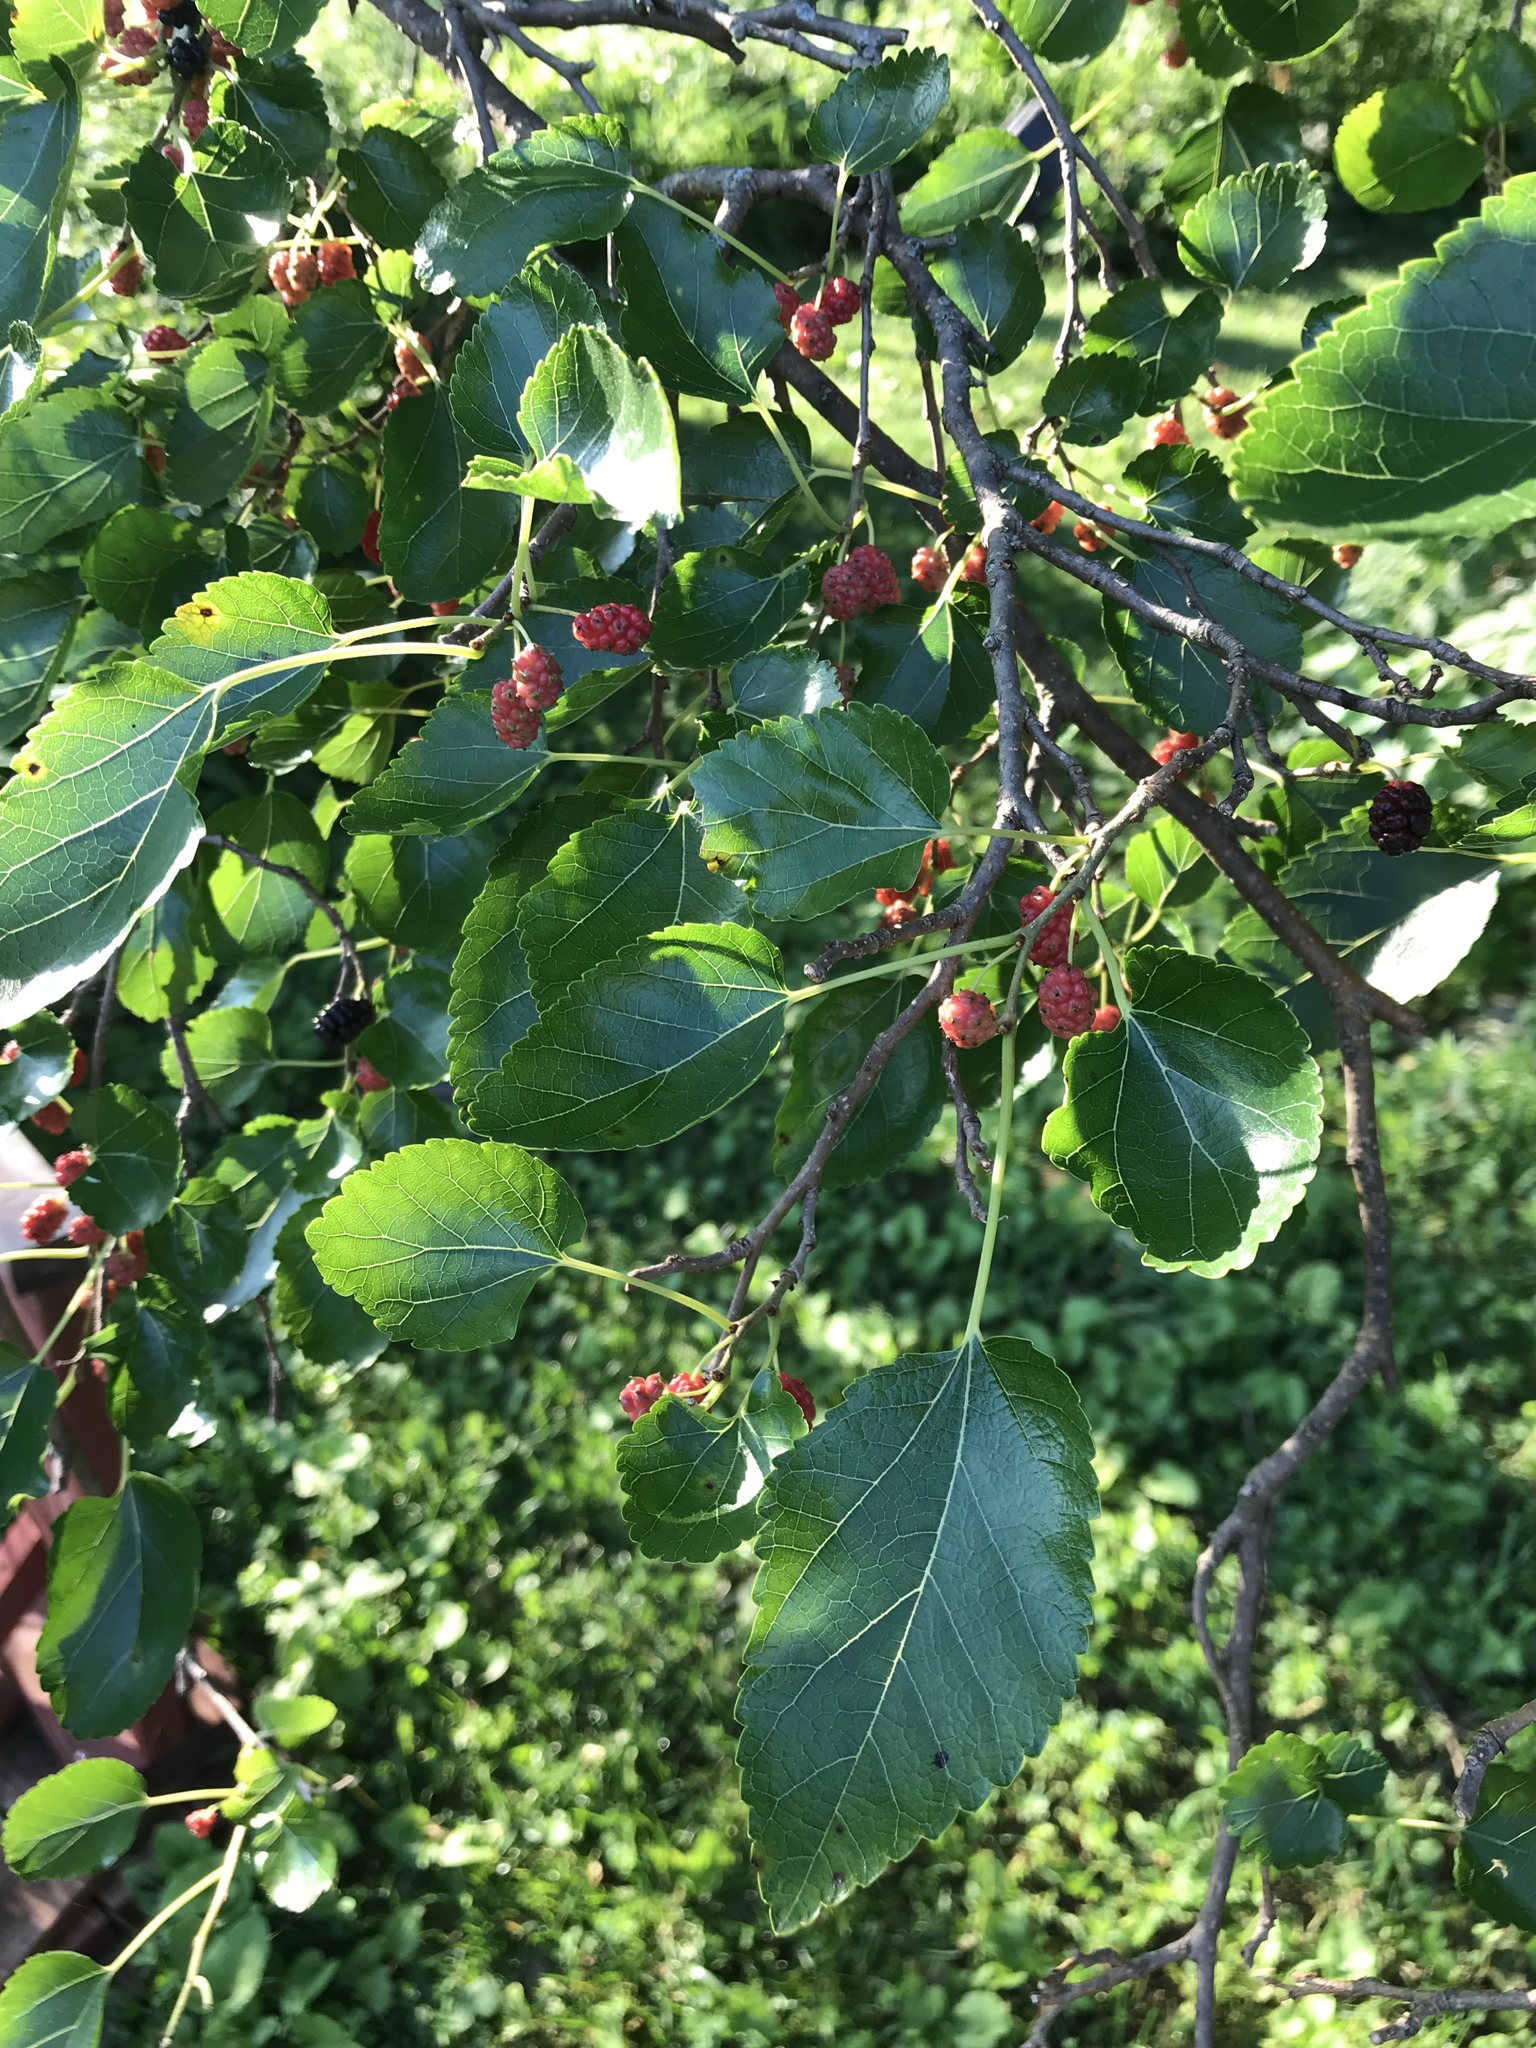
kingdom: Plantae
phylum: Tracheophyta
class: Magnoliopsida
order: Rosales
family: Moraceae
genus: Morus
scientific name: Morus alba
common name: White mulberry
